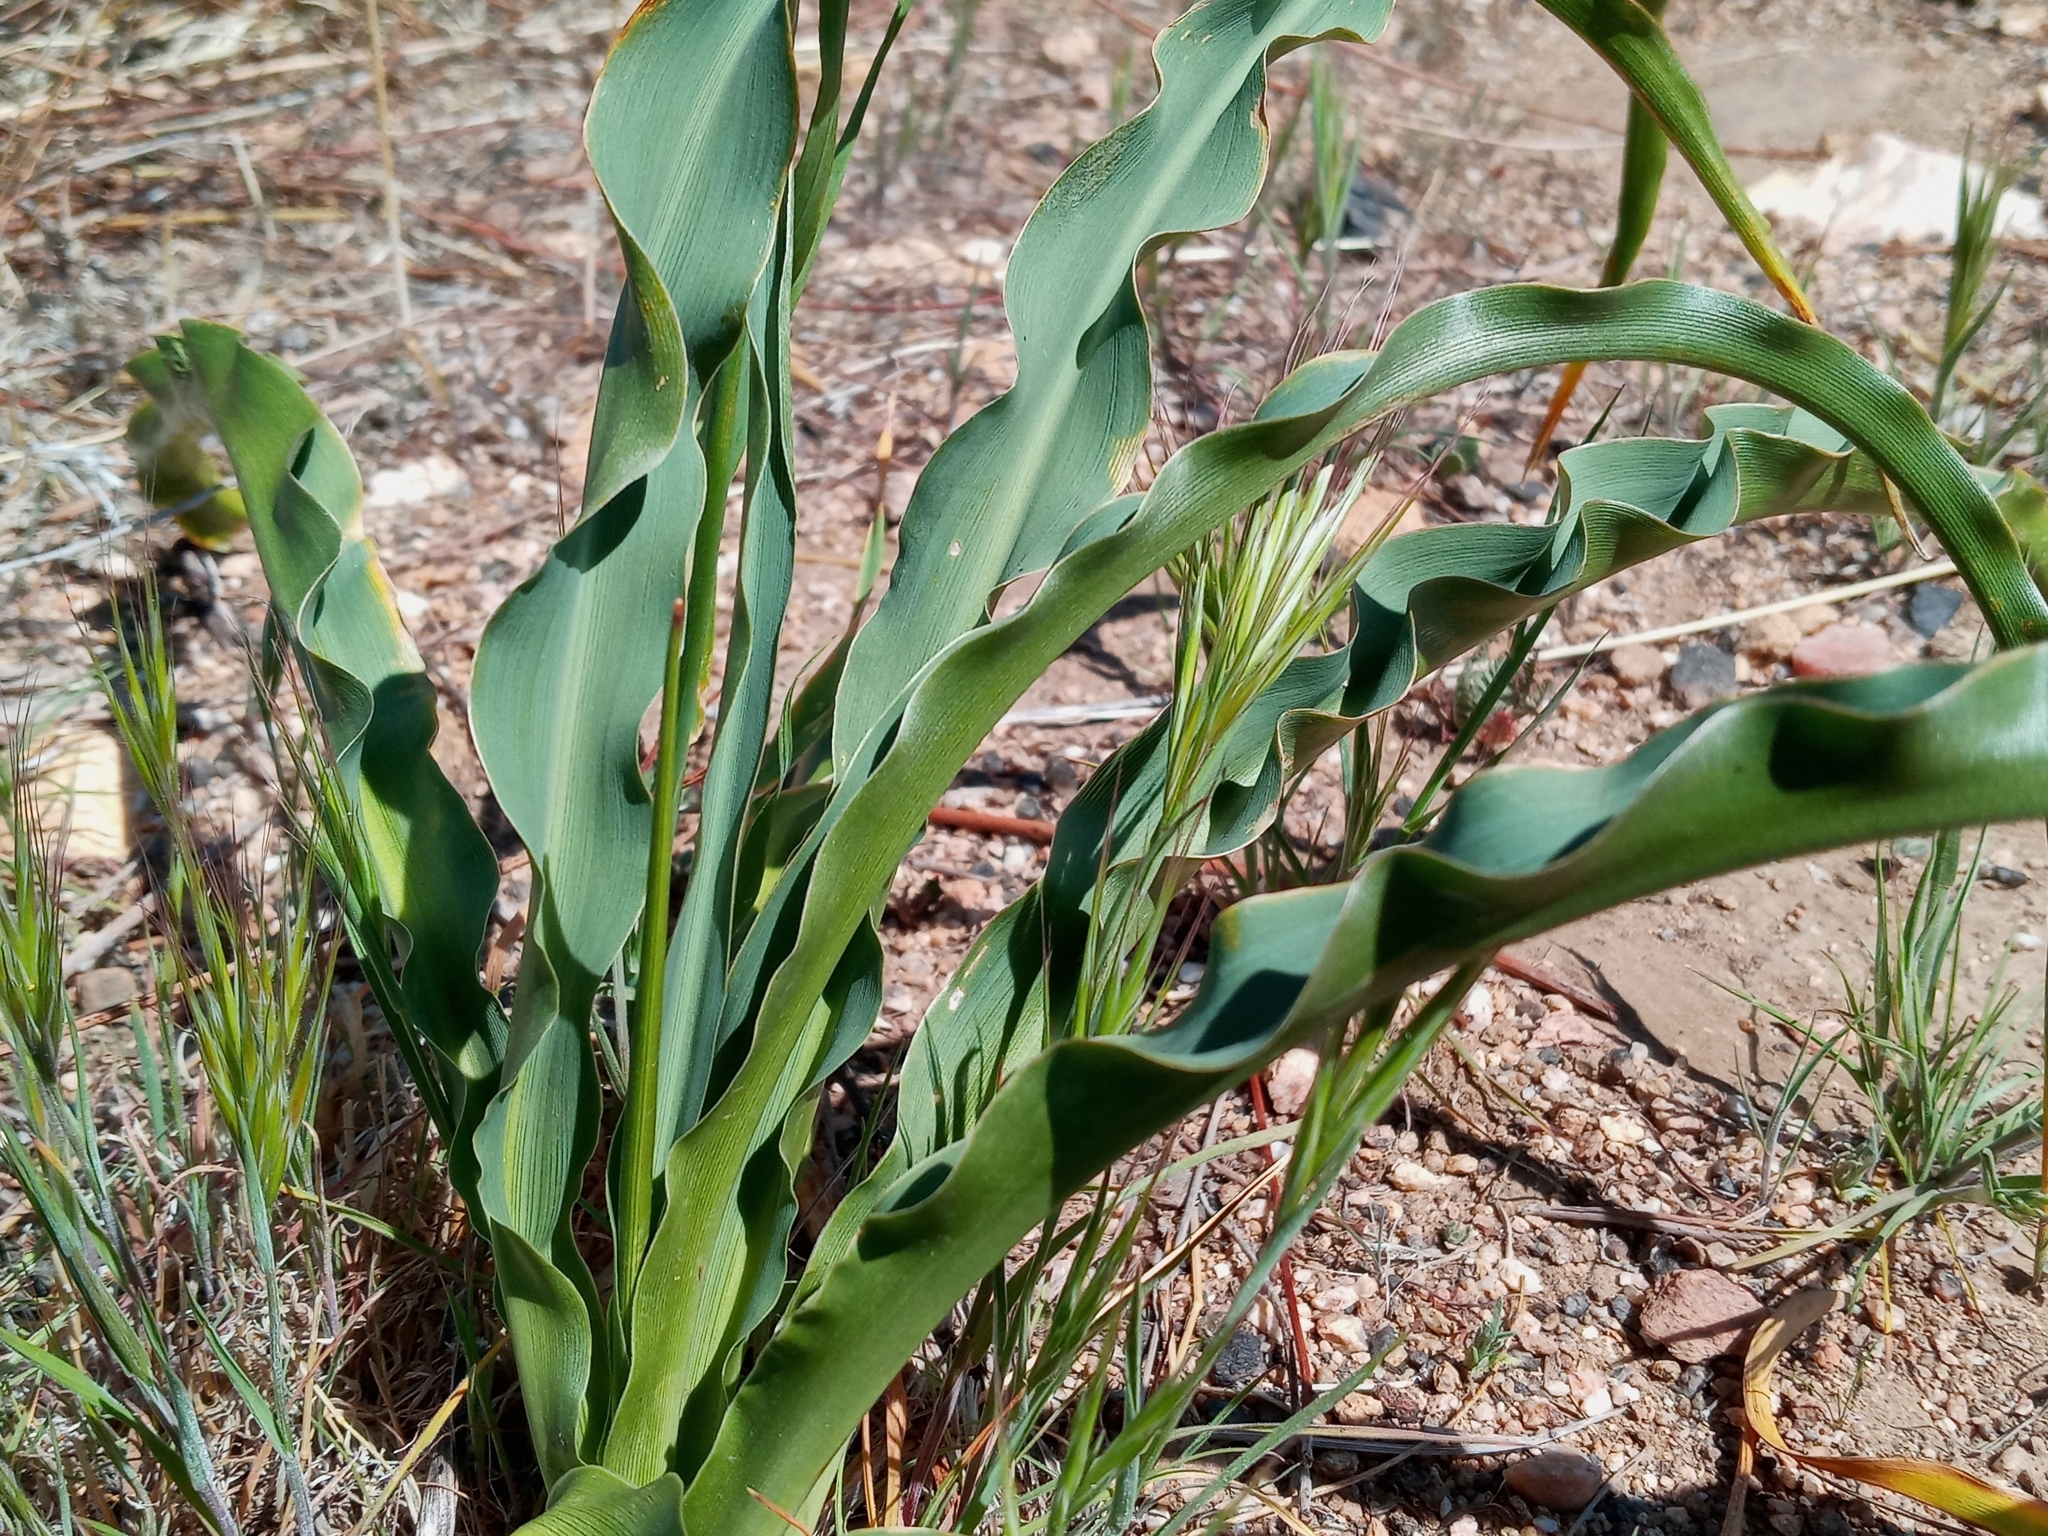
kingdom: Plantae
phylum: Tracheophyta
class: Liliopsida
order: Asparagales
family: Asparagaceae
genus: Chlorogalum
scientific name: Chlorogalum pomeridianum
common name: Amole
